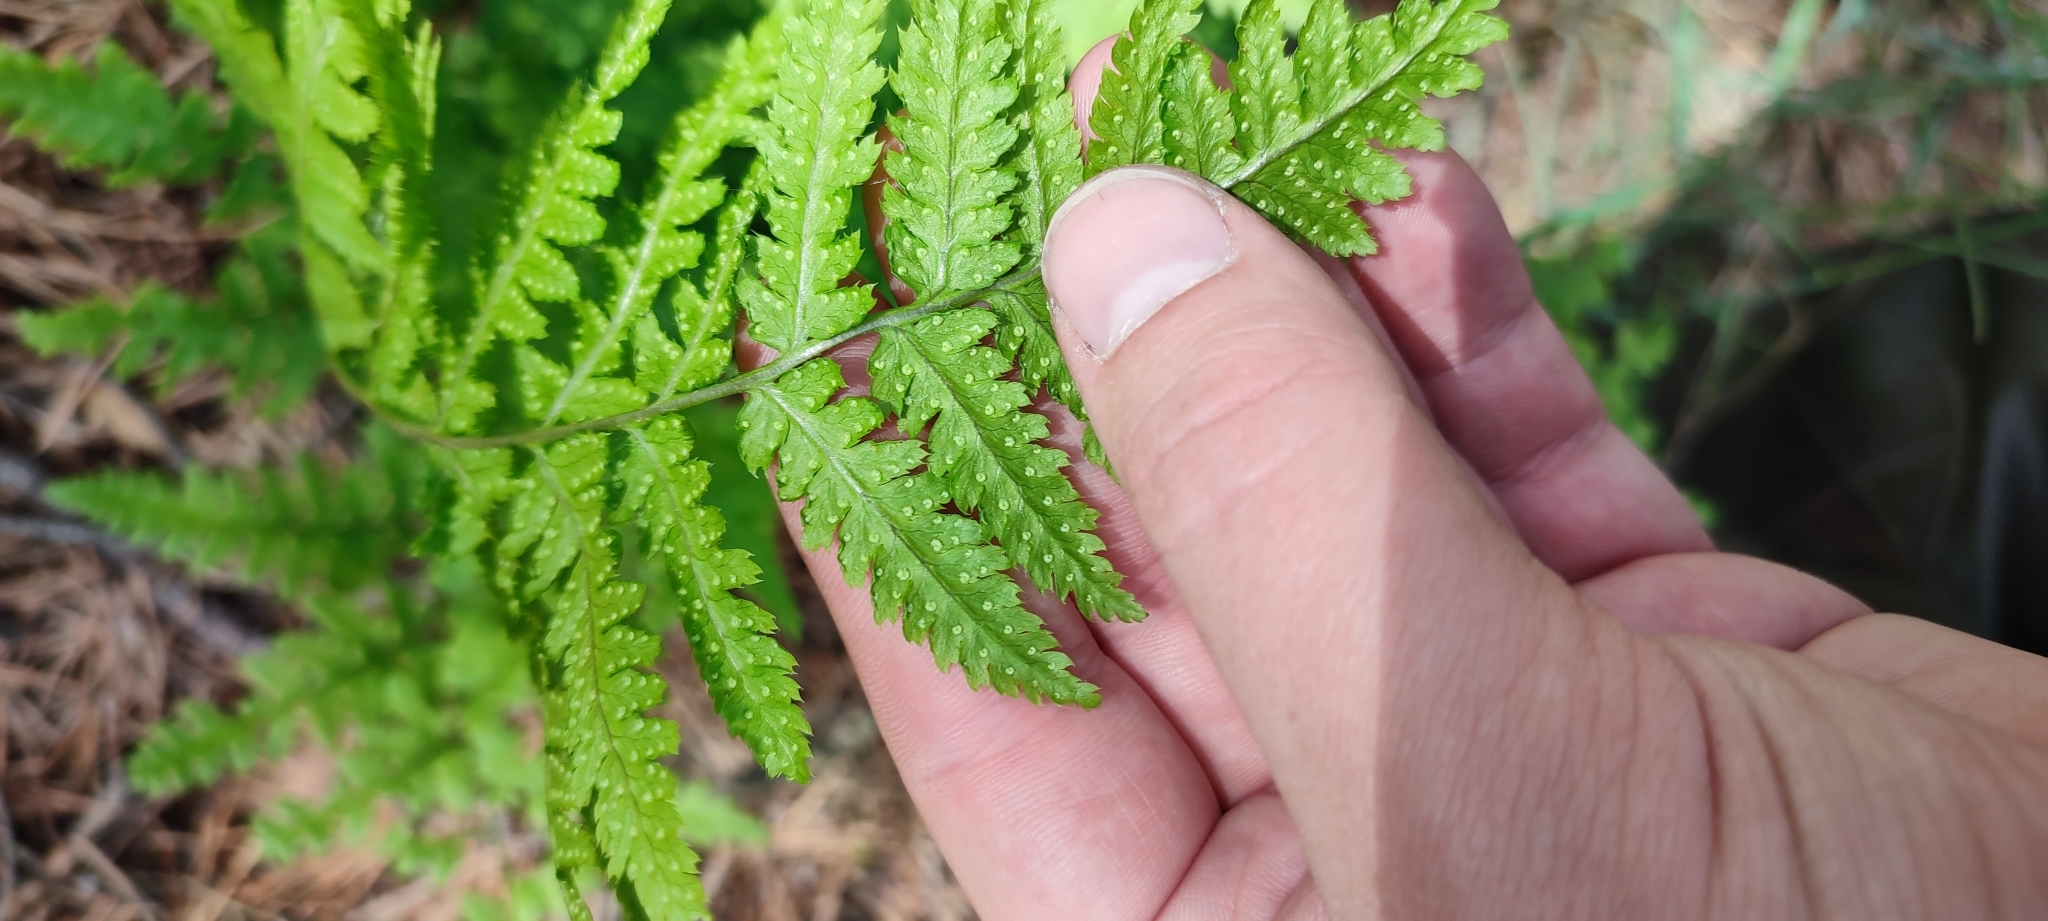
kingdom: Plantae
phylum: Tracheophyta
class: Polypodiopsida
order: Polypodiales
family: Dryopteridaceae
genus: Dryopteris
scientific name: Dryopteris carthusiana
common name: Narrow buckler-fern
